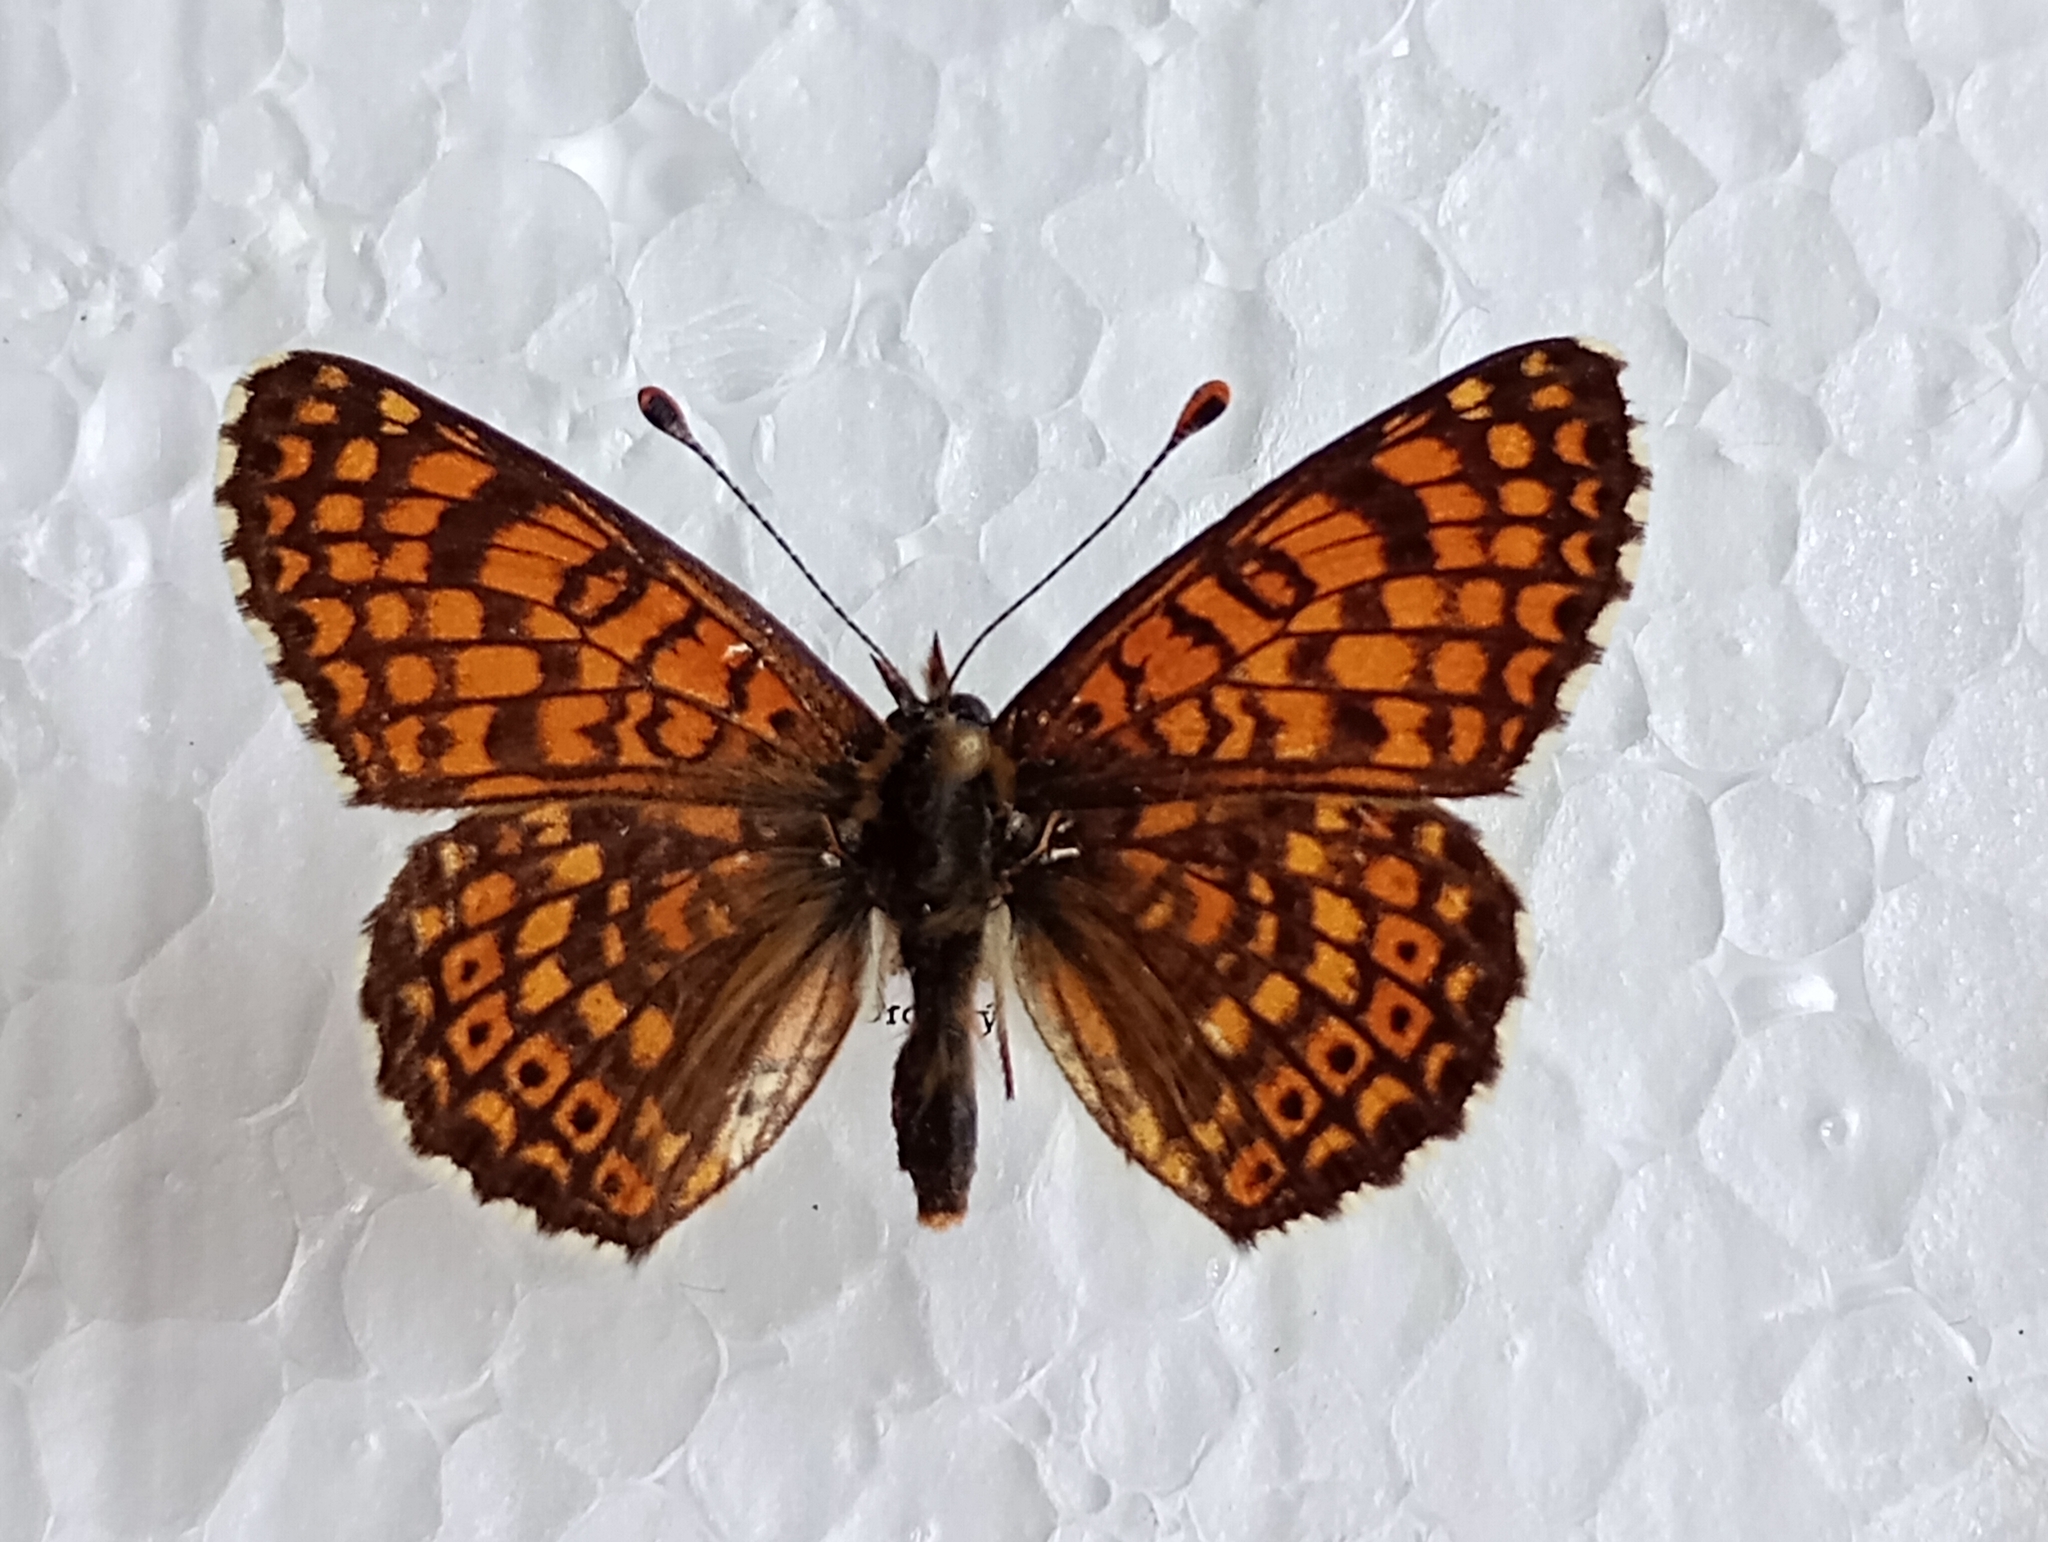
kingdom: Animalia
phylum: Arthropoda
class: Insecta
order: Lepidoptera
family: Nymphalidae
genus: Melitaea
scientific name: Melitaea cinxia
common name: Glanville fritillary
